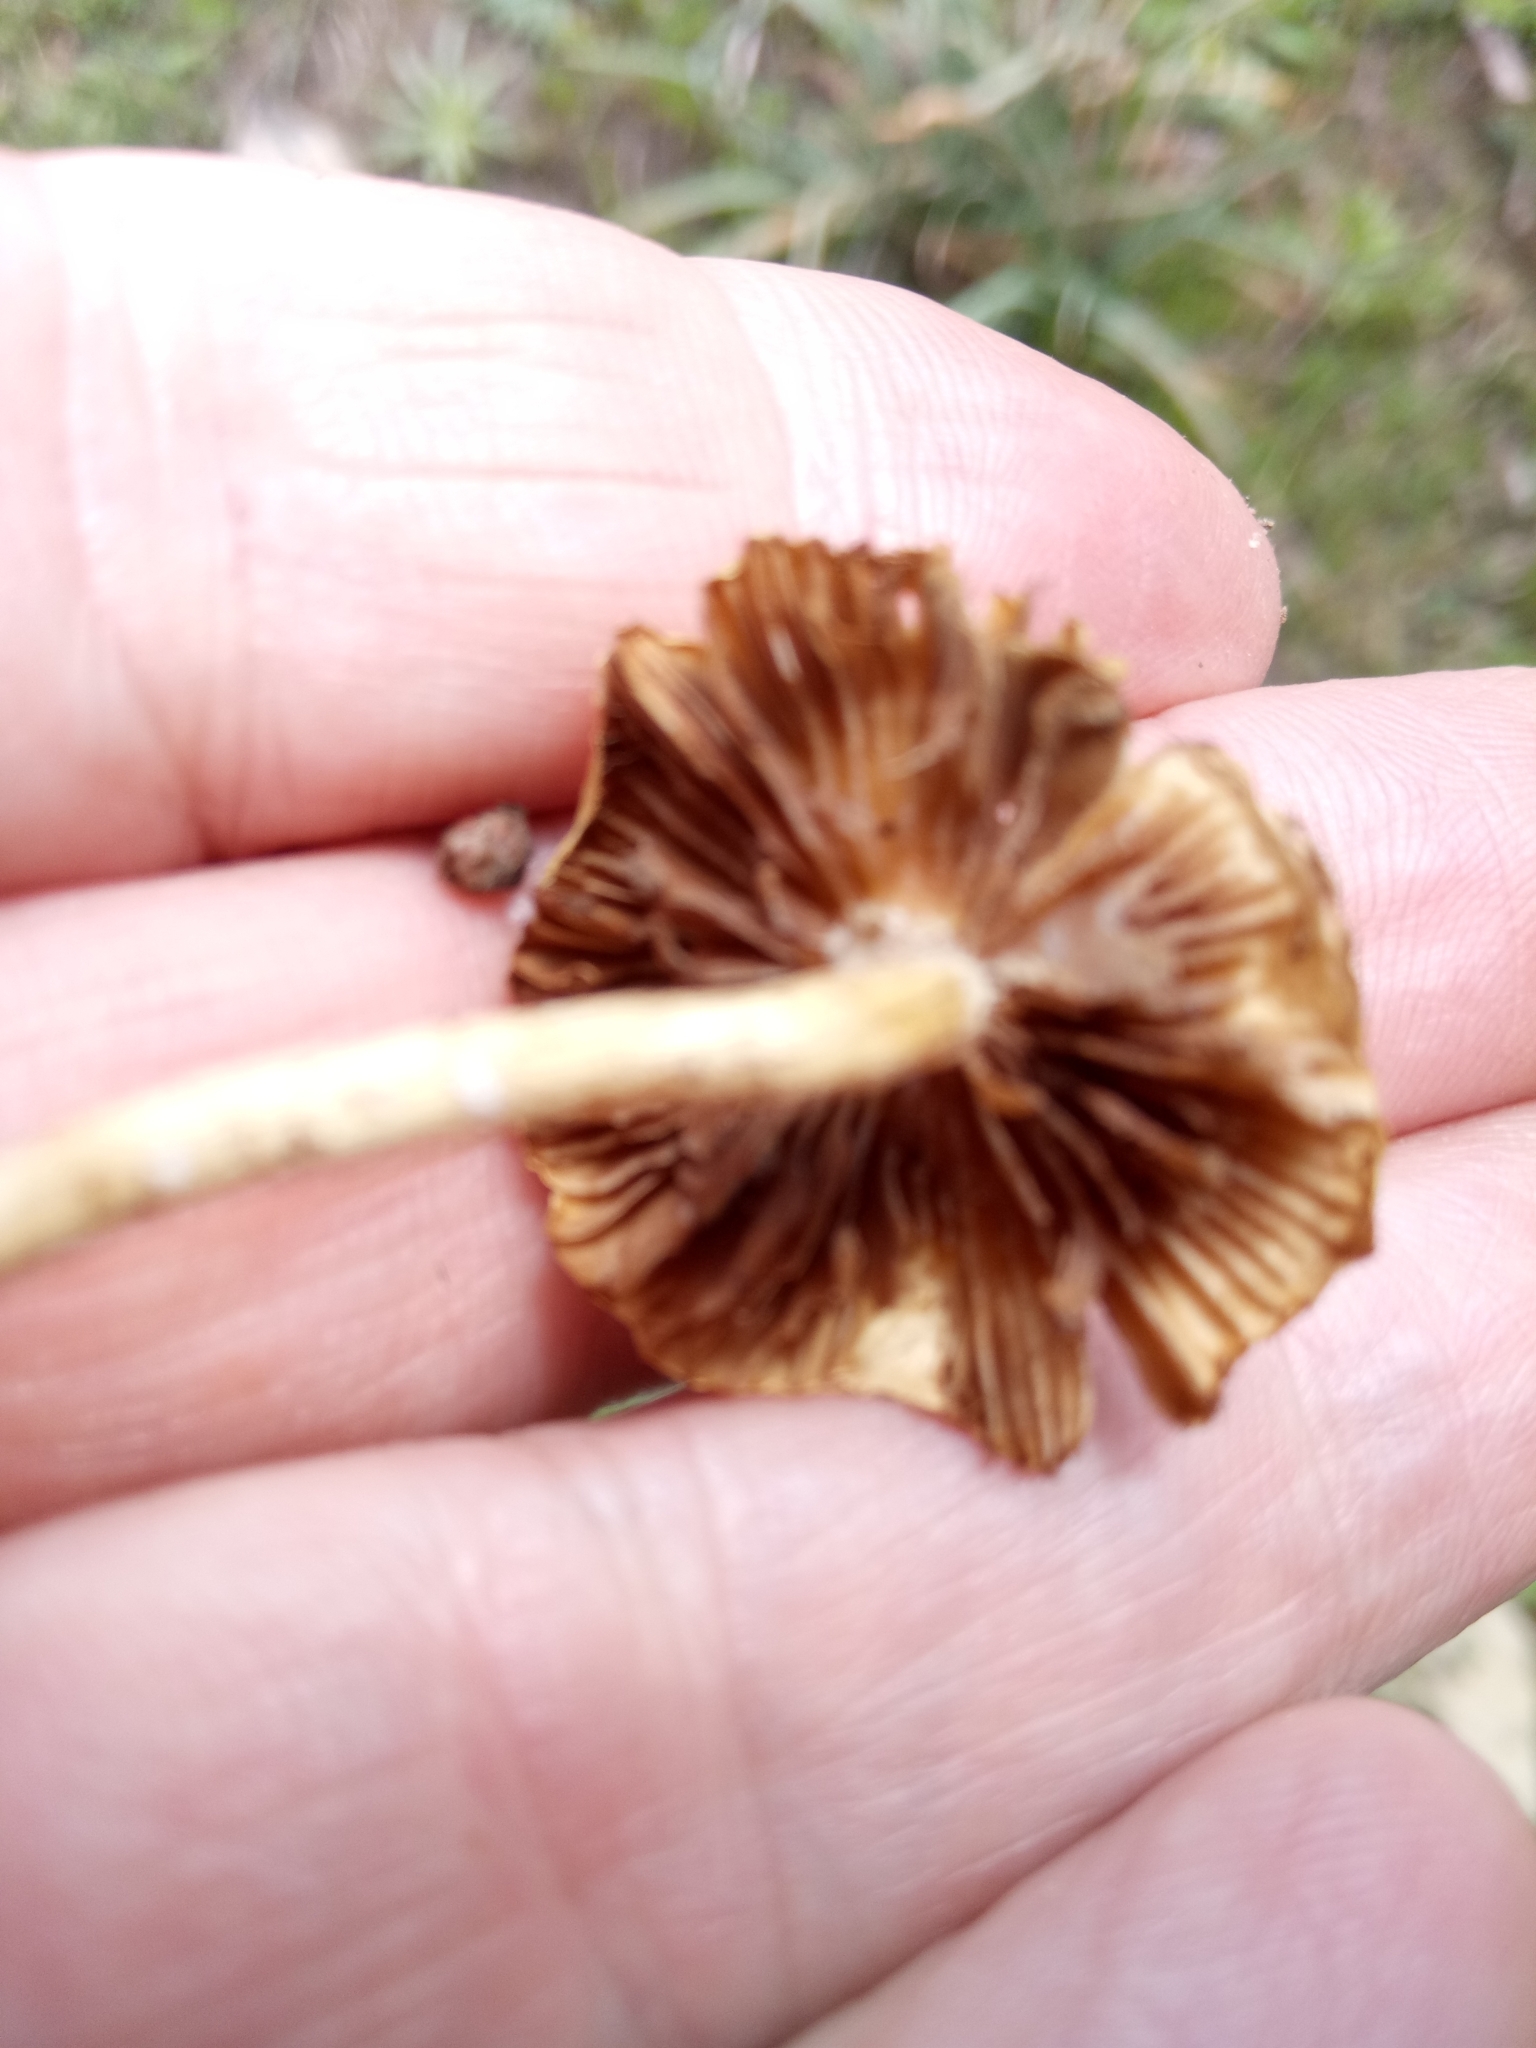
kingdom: Fungi
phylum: Basidiomycota
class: Agaricomycetes
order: Agaricales
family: Strophariaceae
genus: Agrocybe
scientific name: Agrocybe pediades
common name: Common fieldcap
